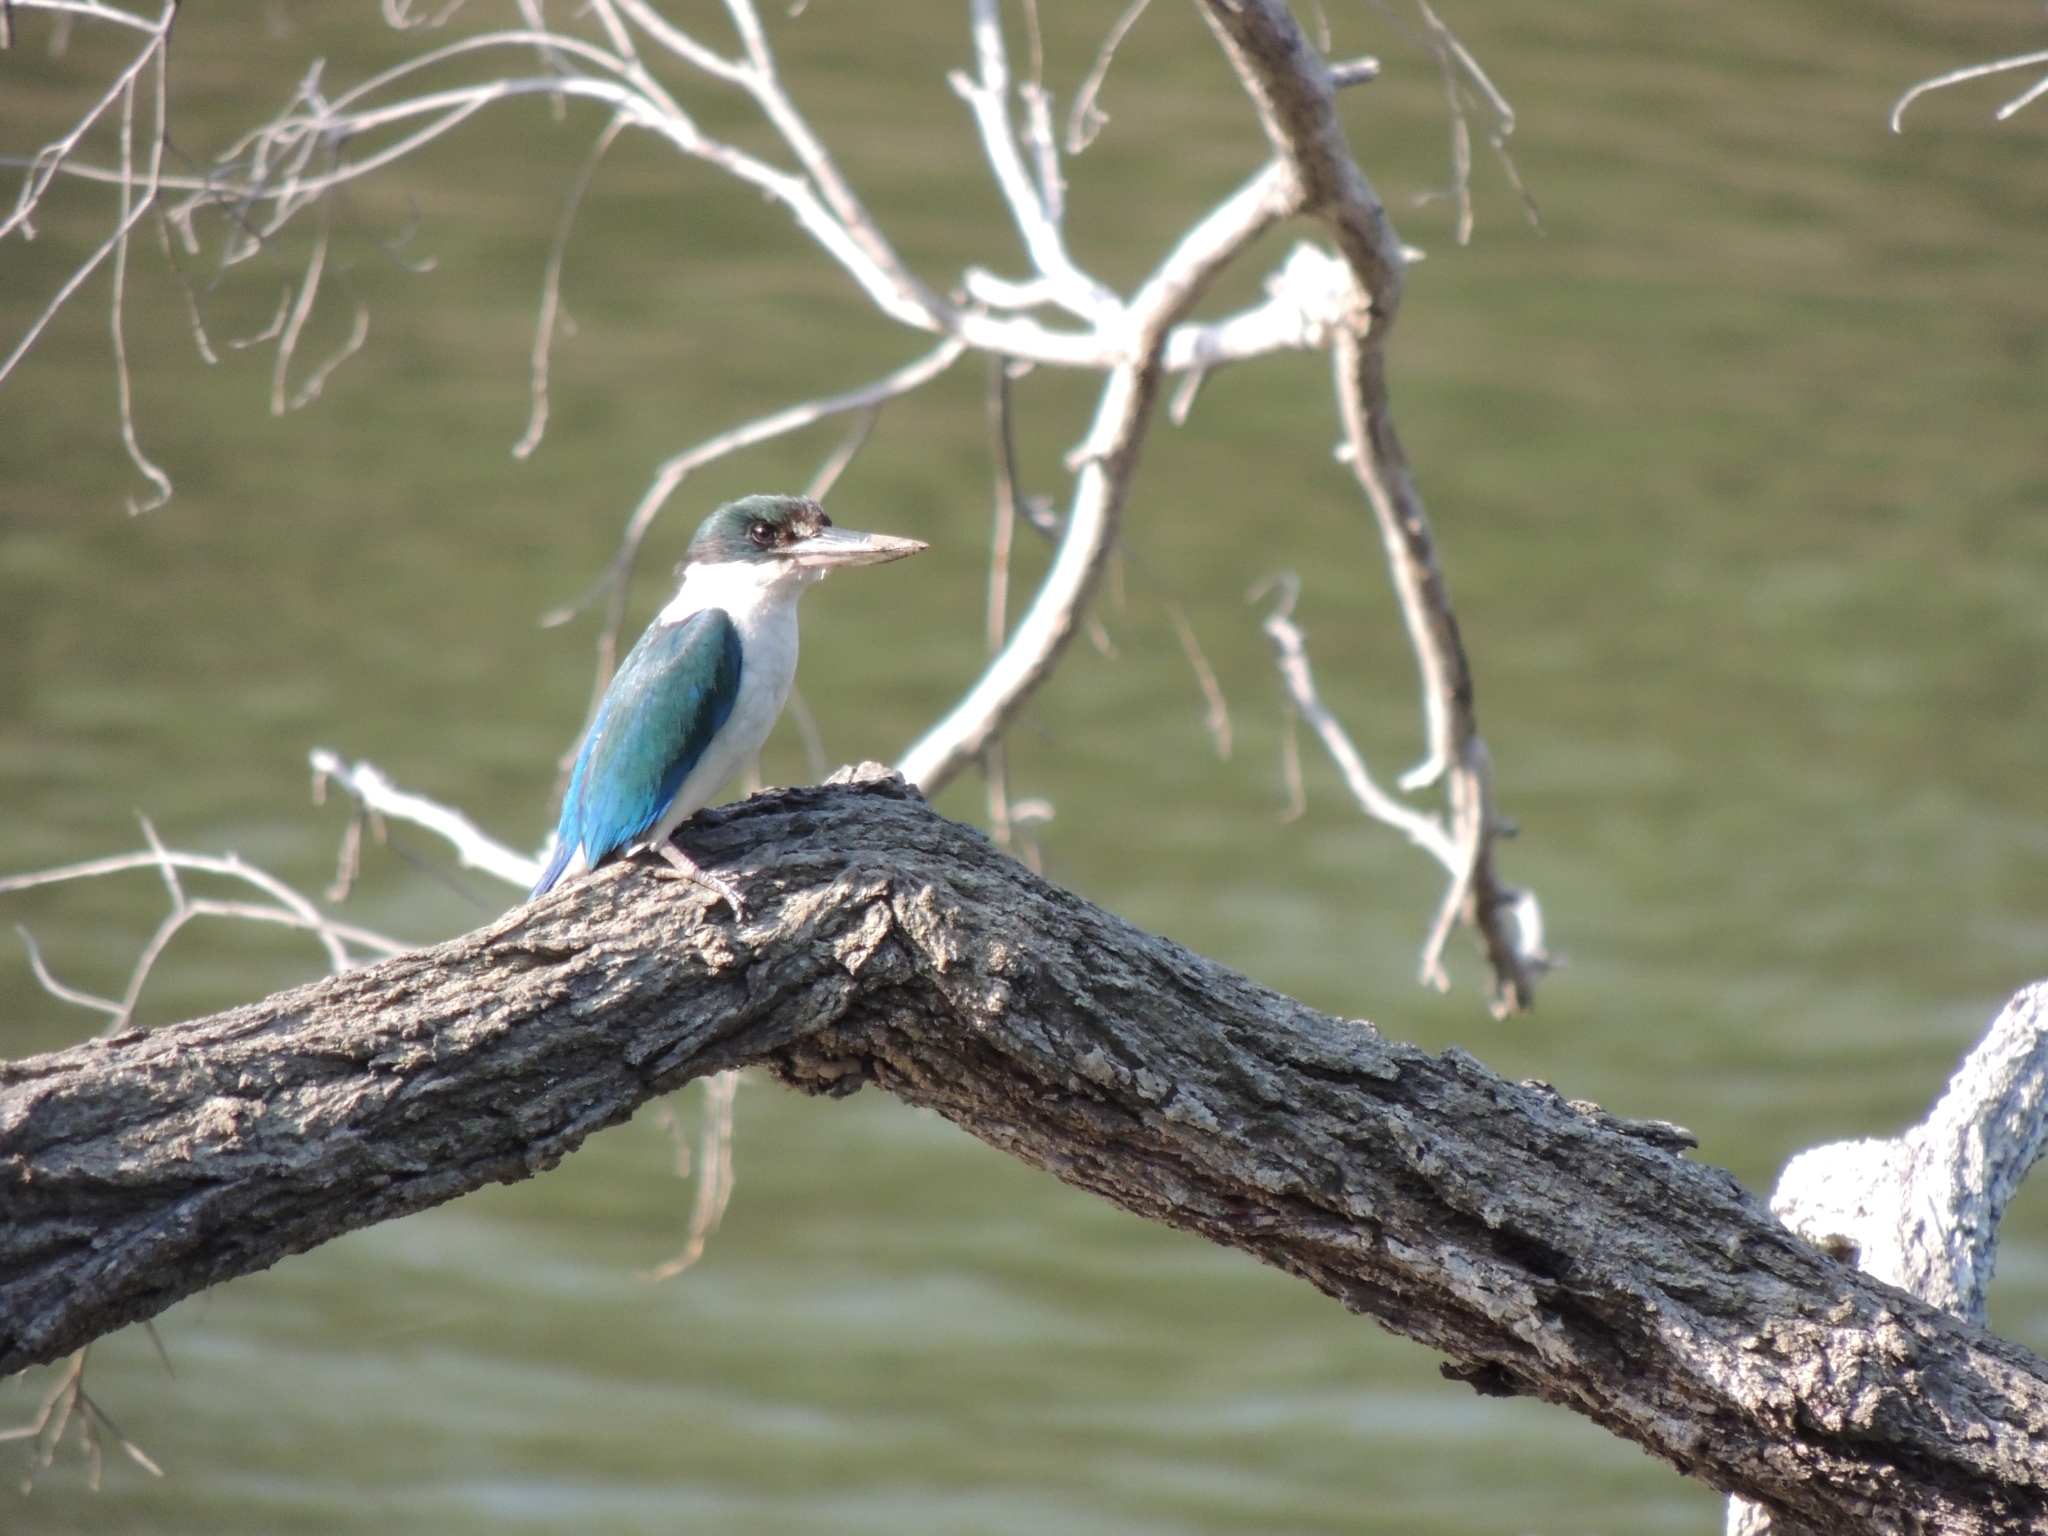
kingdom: Animalia
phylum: Chordata
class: Aves
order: Coraciiformes
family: Alcedinidae
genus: Todiramphus
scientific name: Todiramphus sordidus
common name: Torresian kingfisher
